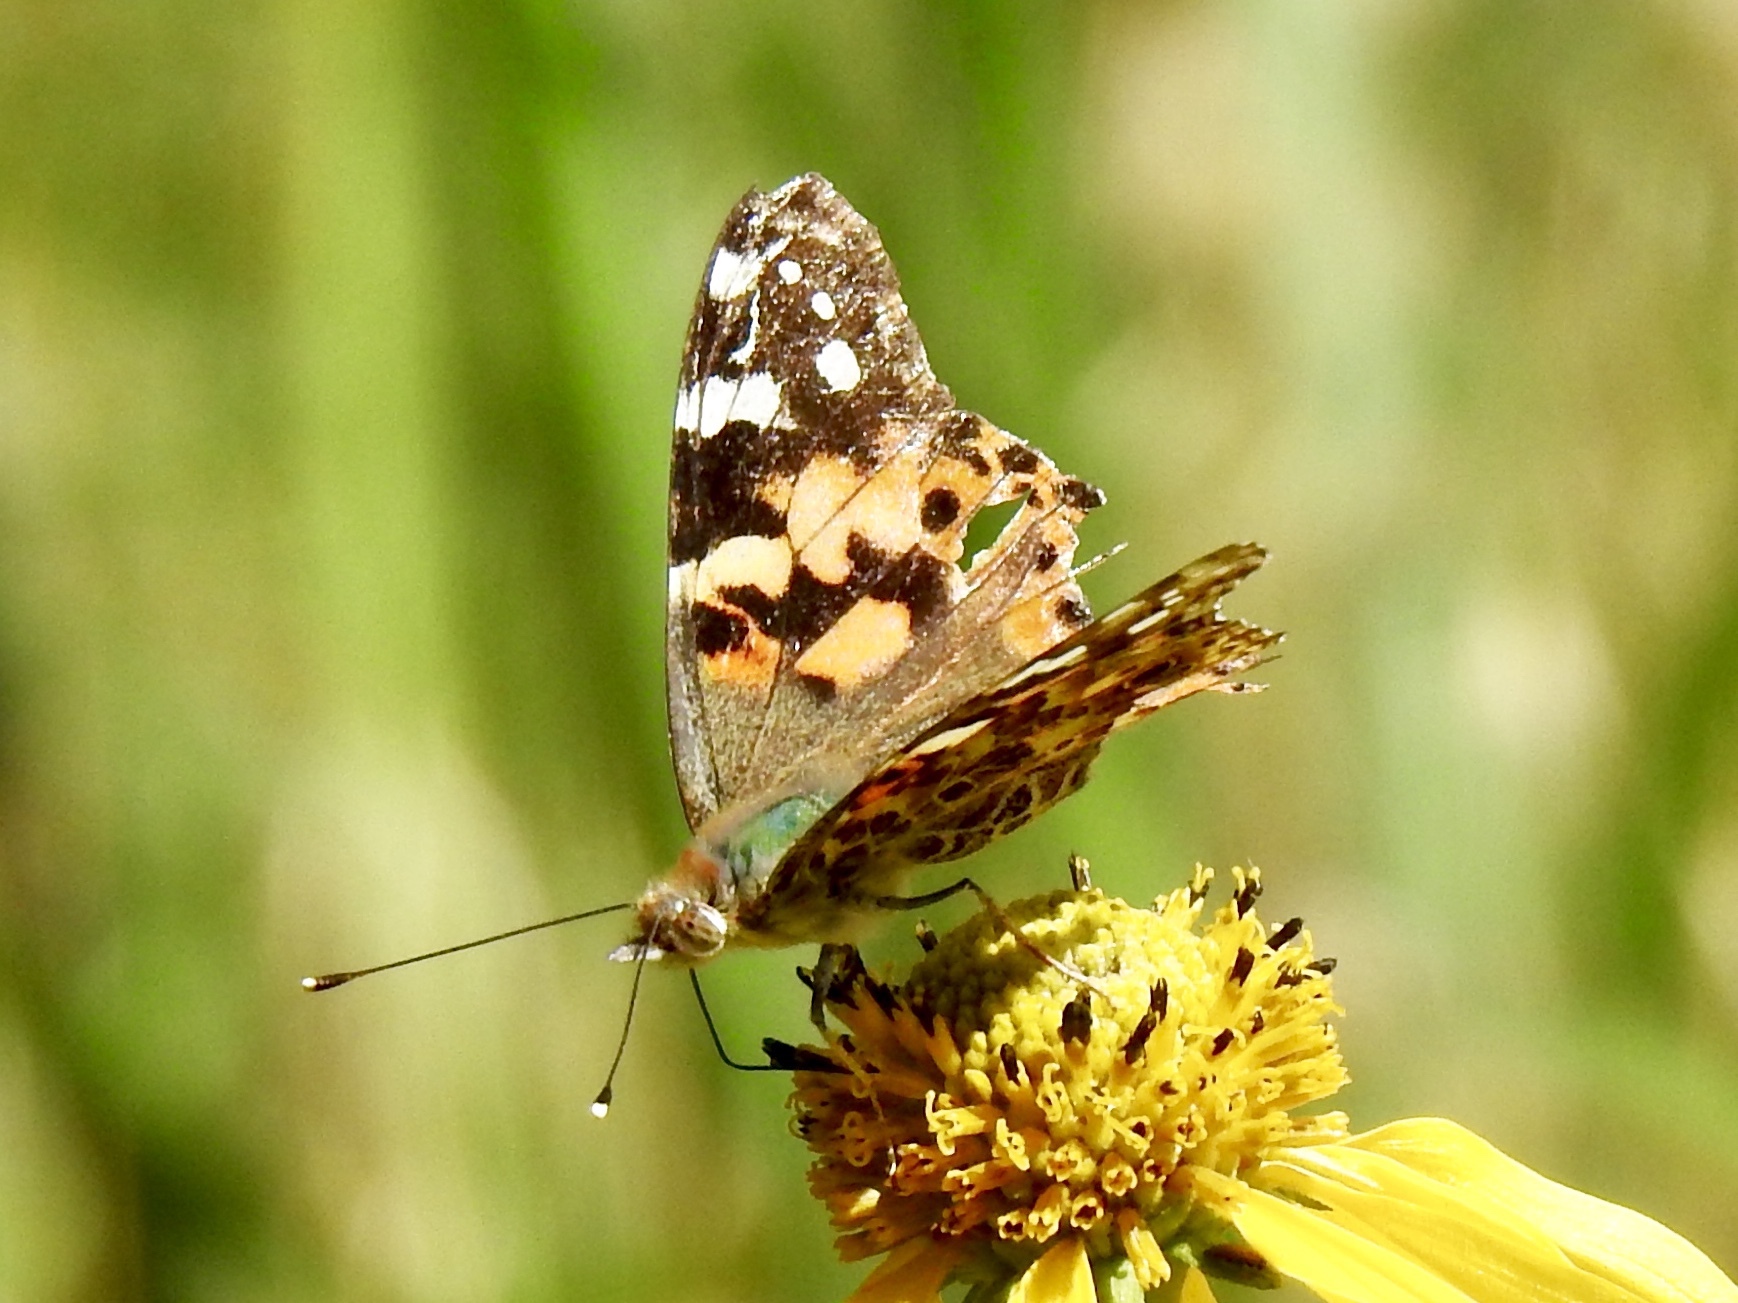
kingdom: Animalia
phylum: Arthropoda
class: Insecta
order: Lepidoptera
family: Nymphalidae
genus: Vanessa
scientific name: Vanessa cardui
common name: Painted lady
